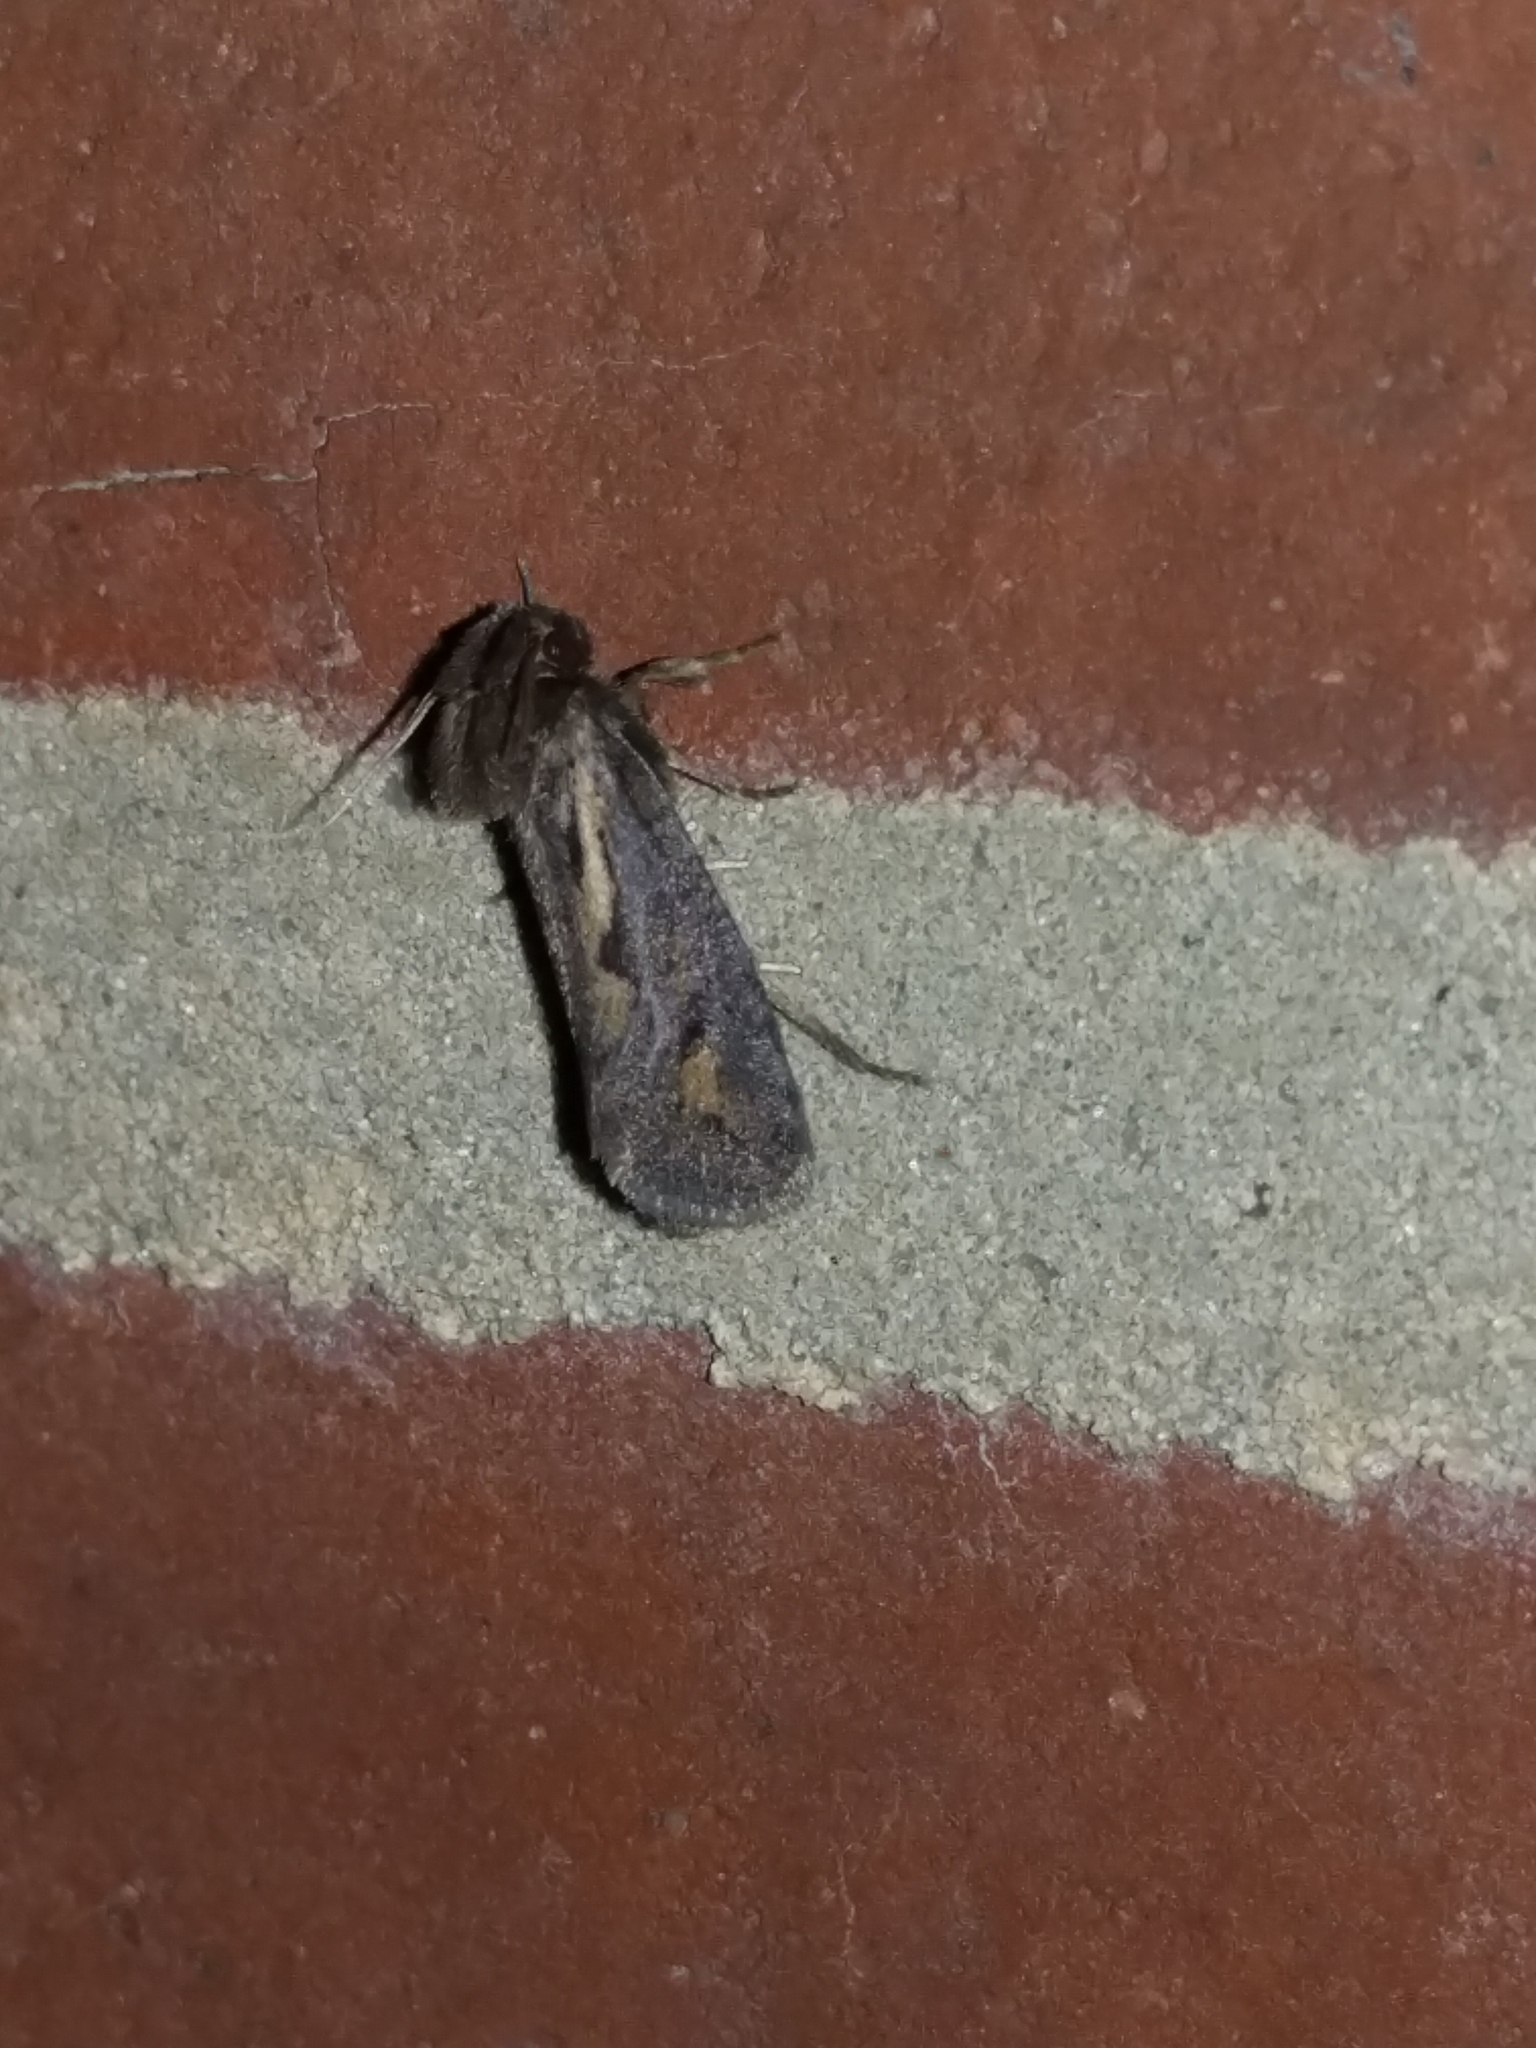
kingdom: Animalia
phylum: Arthropoda
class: Insecta
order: Lepidoptera
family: Tineidae
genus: Acrolophus
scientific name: Acrolophus popeanella
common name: Clemens' grass tubeworm moth
